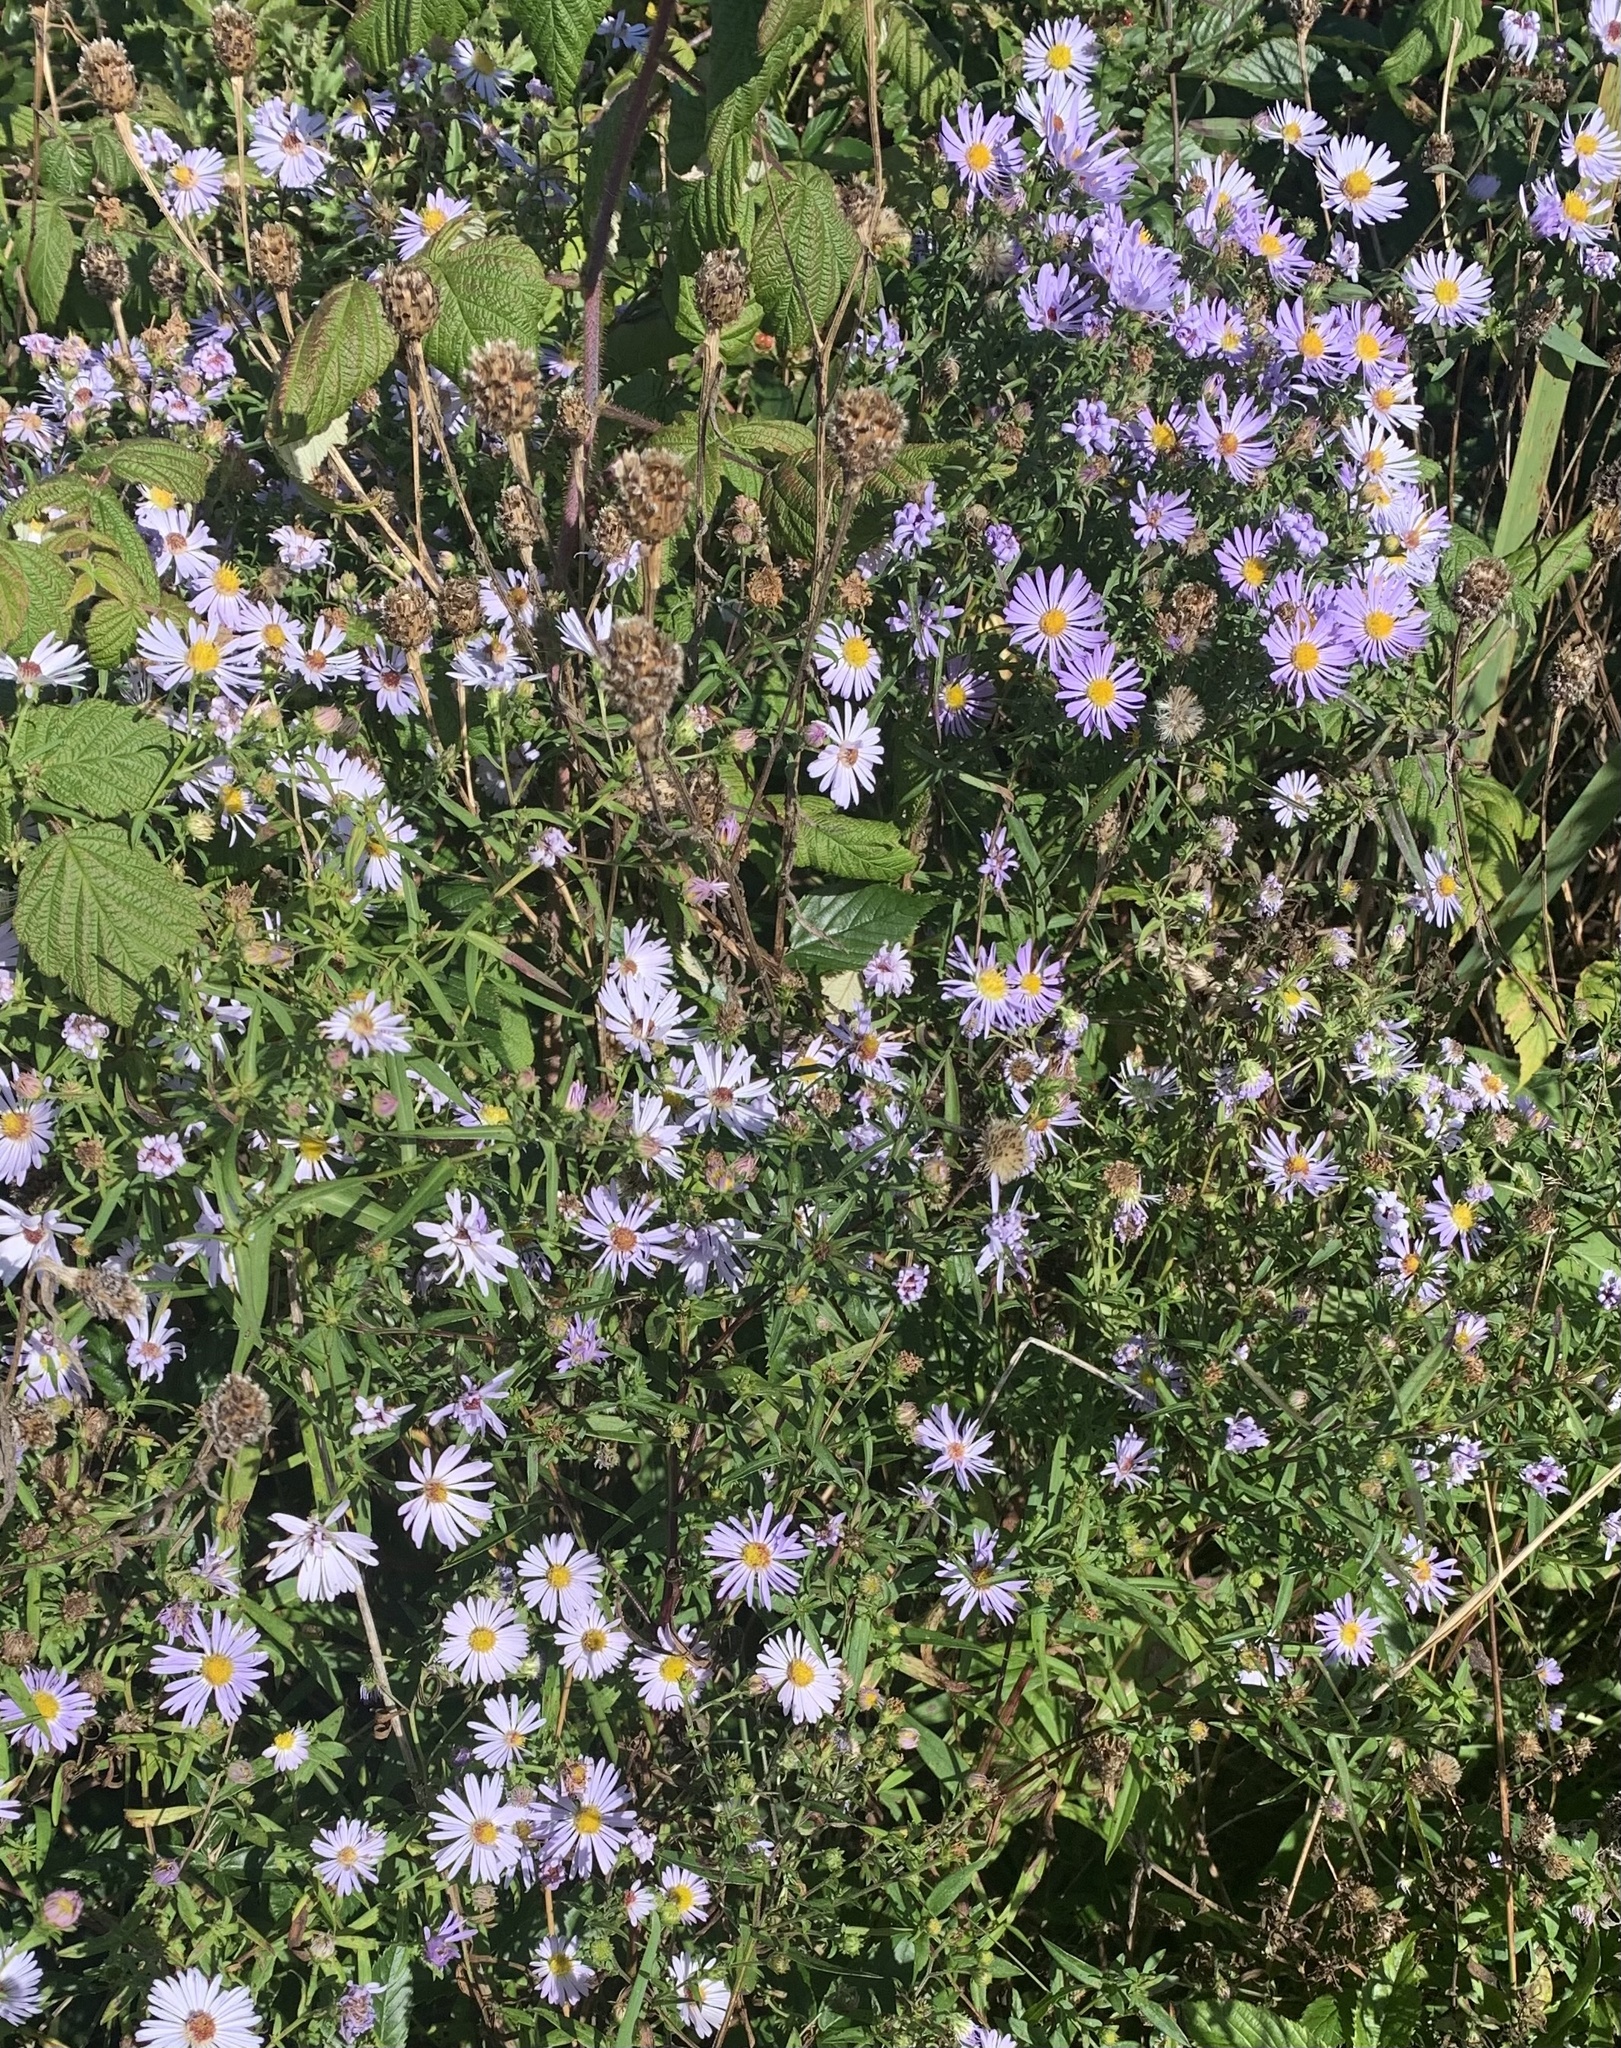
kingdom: Plantae
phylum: Tracheophyta
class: Magnoliopsida
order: Asterales
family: Asteraceae
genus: Symphyotrichum
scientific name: Symphyotrichum novi-belgii
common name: Michaelmas daisy
